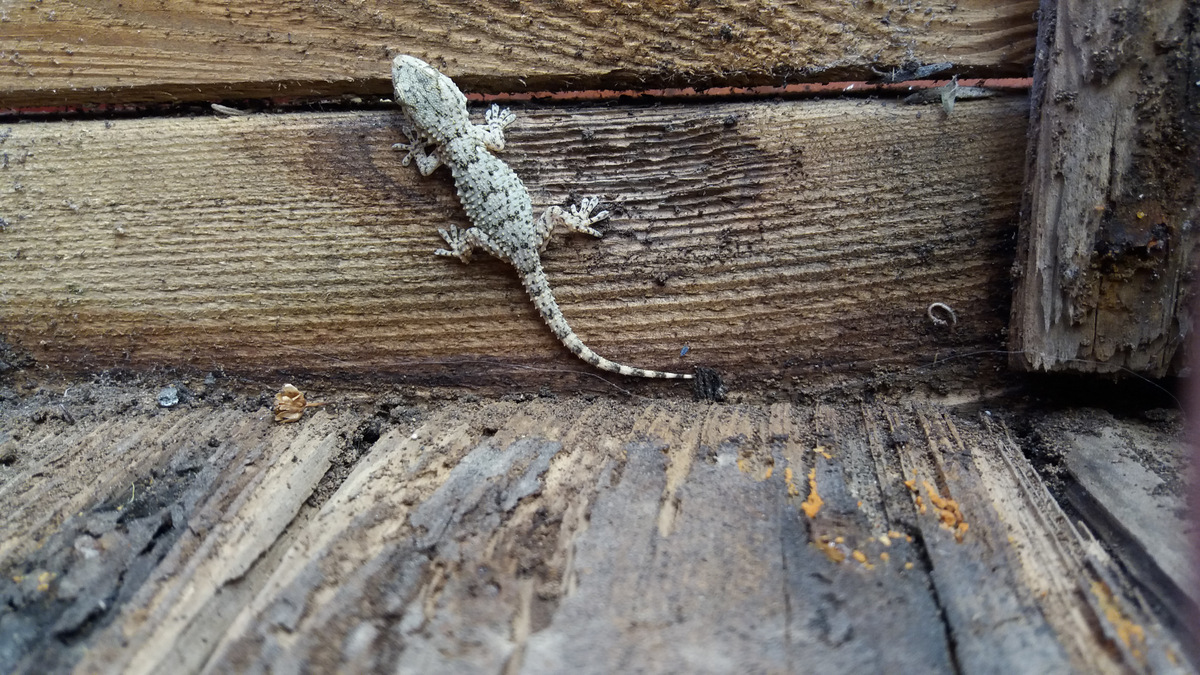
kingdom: Animalia
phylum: Chordata
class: Squamata
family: Phyllodactylidae
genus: Tarentola
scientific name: Tarentola mauritanica
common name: Moorish gecko
